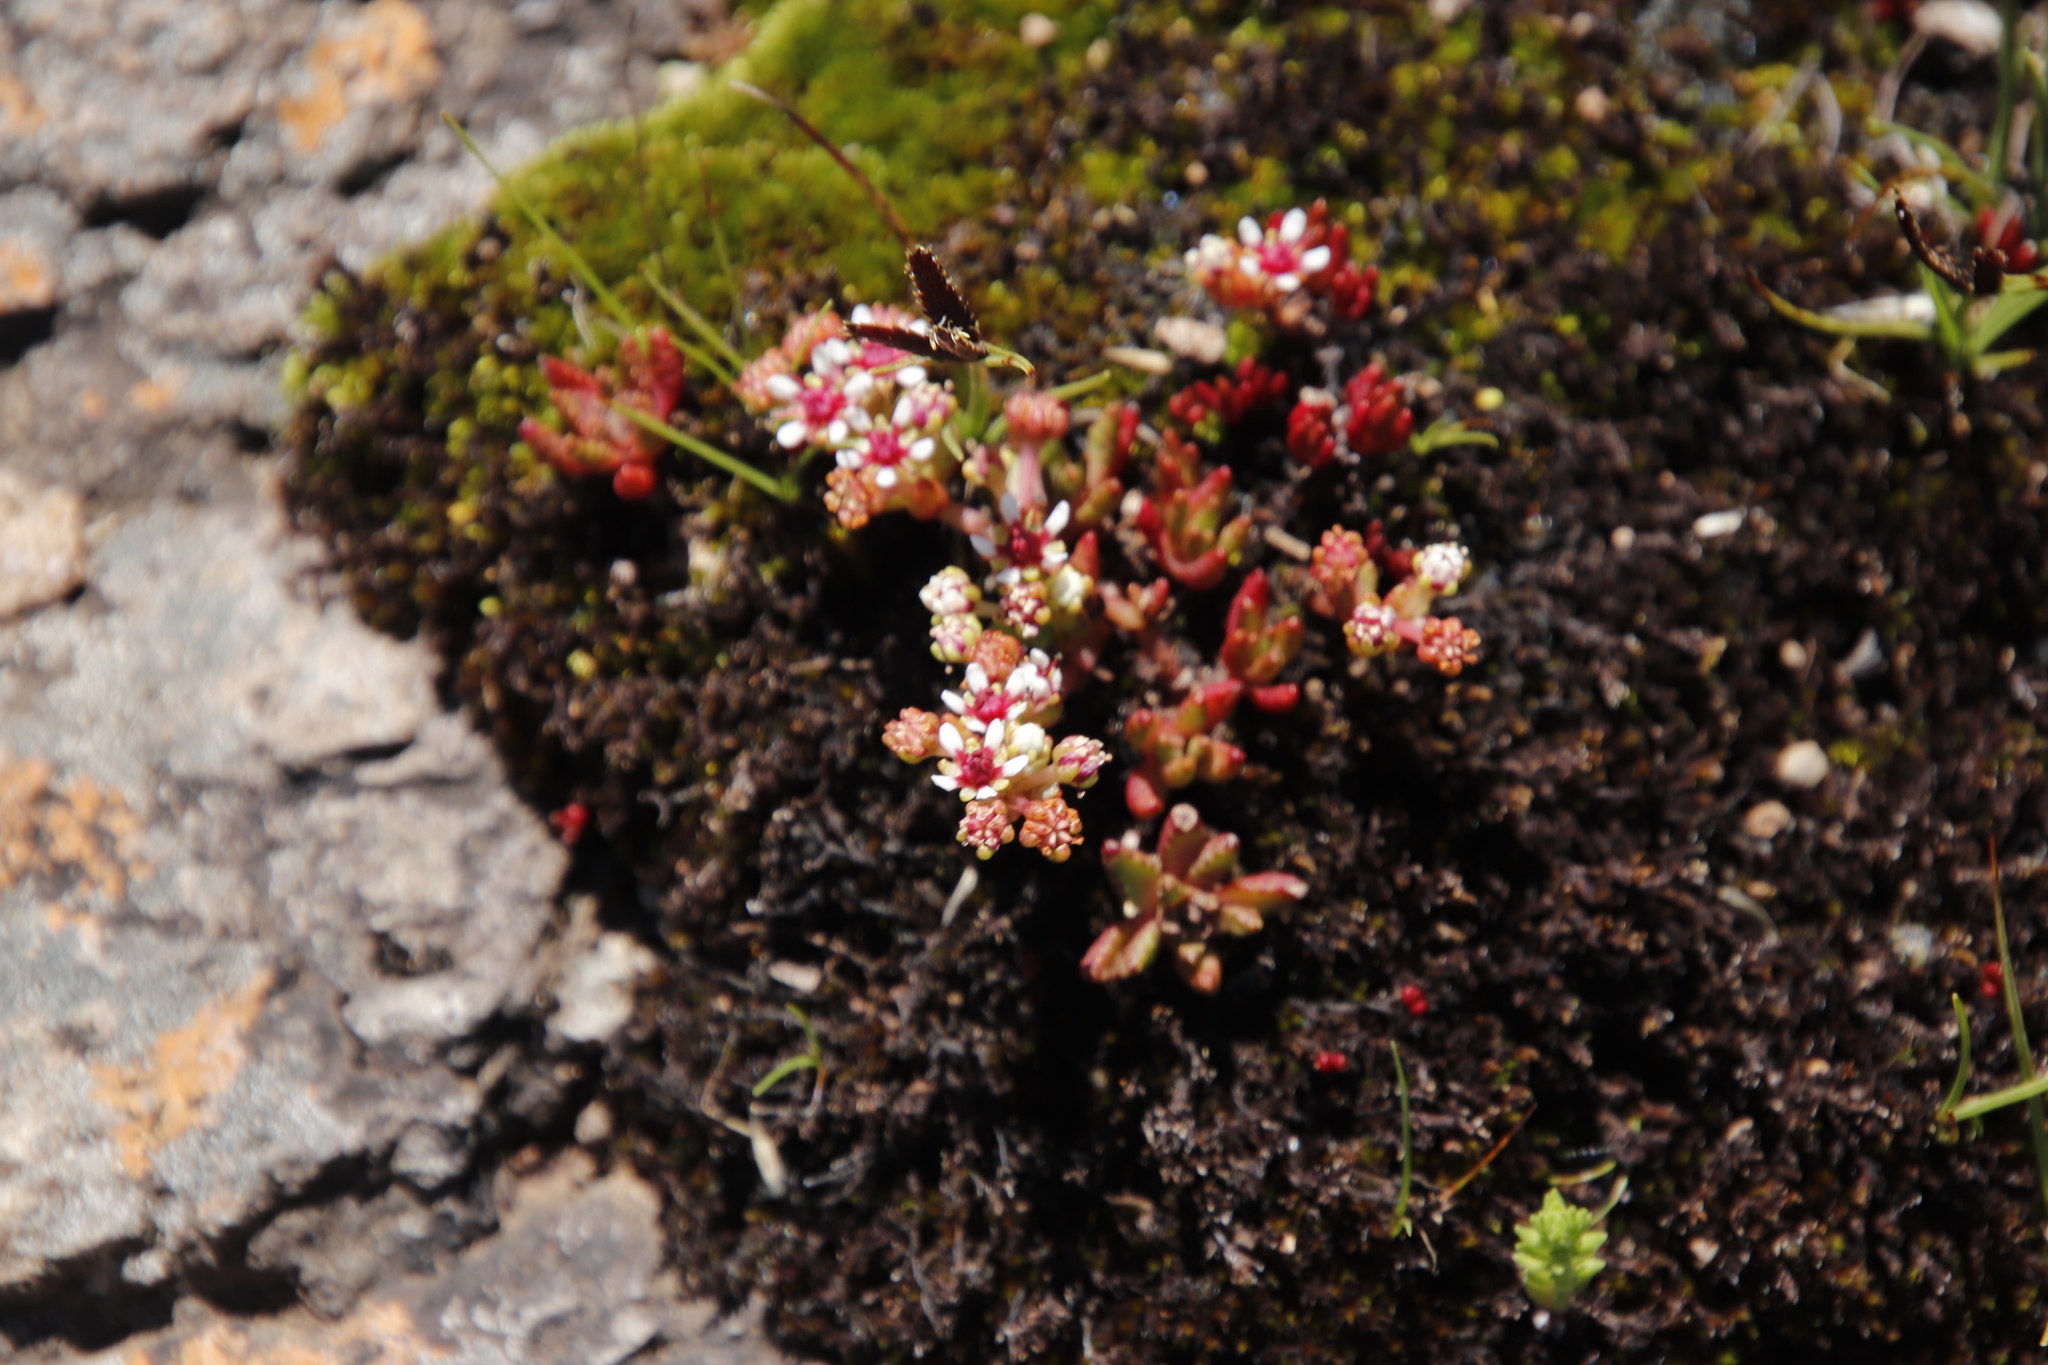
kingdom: Plantae
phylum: Tracheophyta
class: Magnoliopsida
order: Saxifragales
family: Crassulaceae
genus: Crassula
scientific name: Crassula peploides
